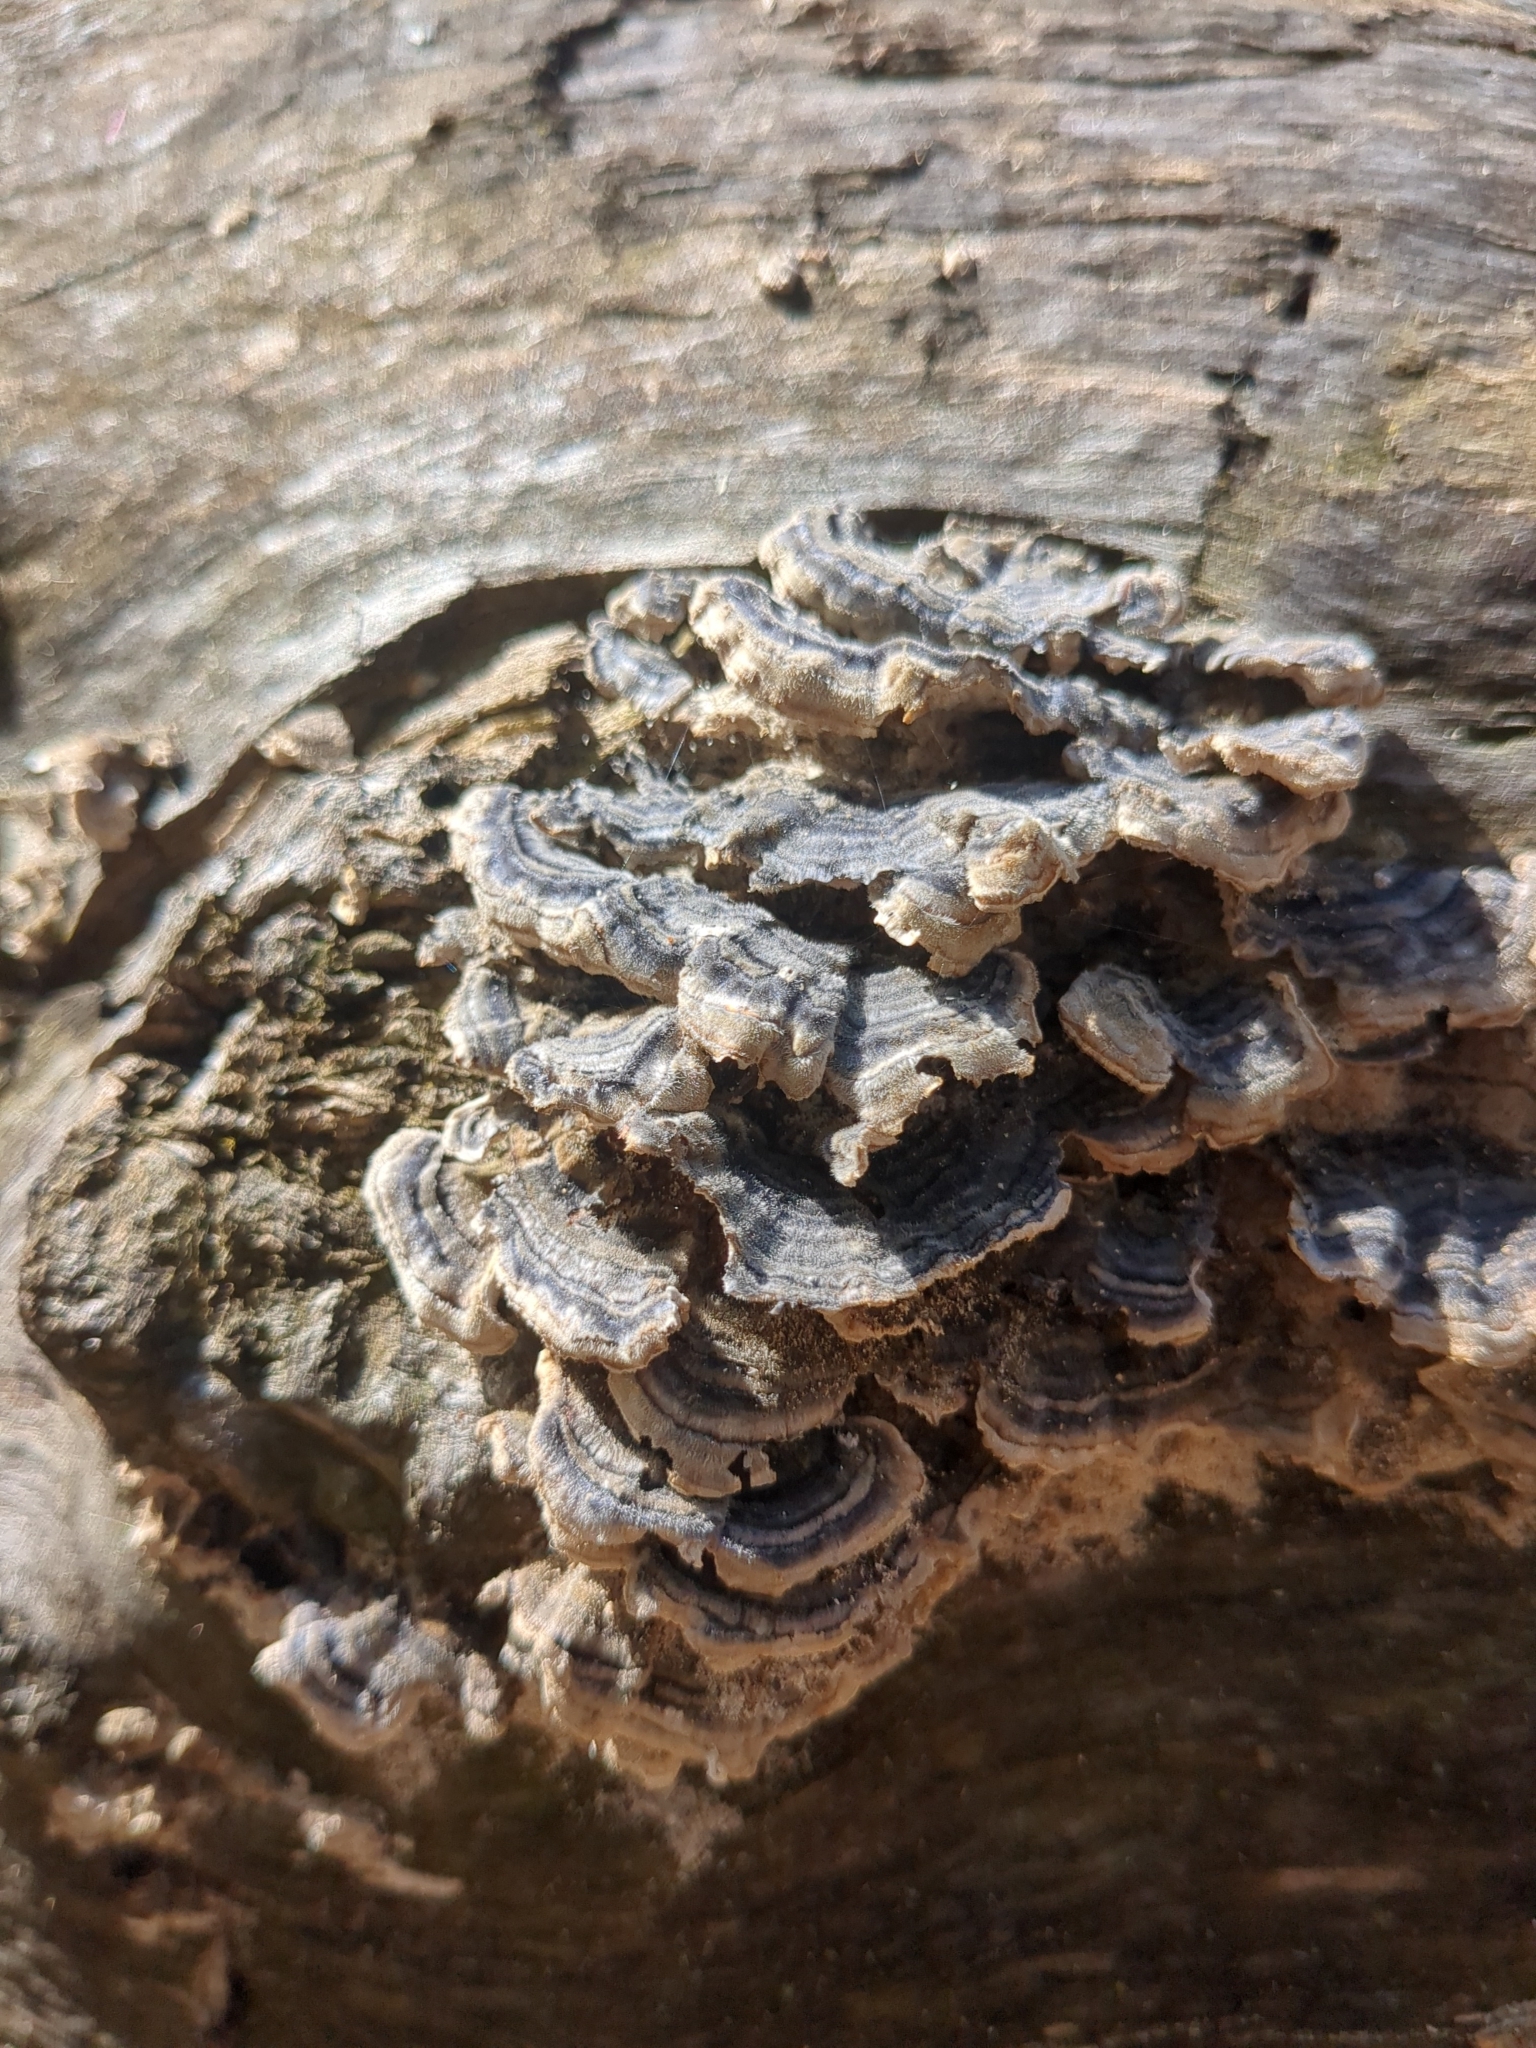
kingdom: Fungi
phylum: Basidiomycota
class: Agaricomycetes
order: Polyporales
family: Polyporaceae
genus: Trametes
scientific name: Trametes versicolor
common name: Turkeytail
